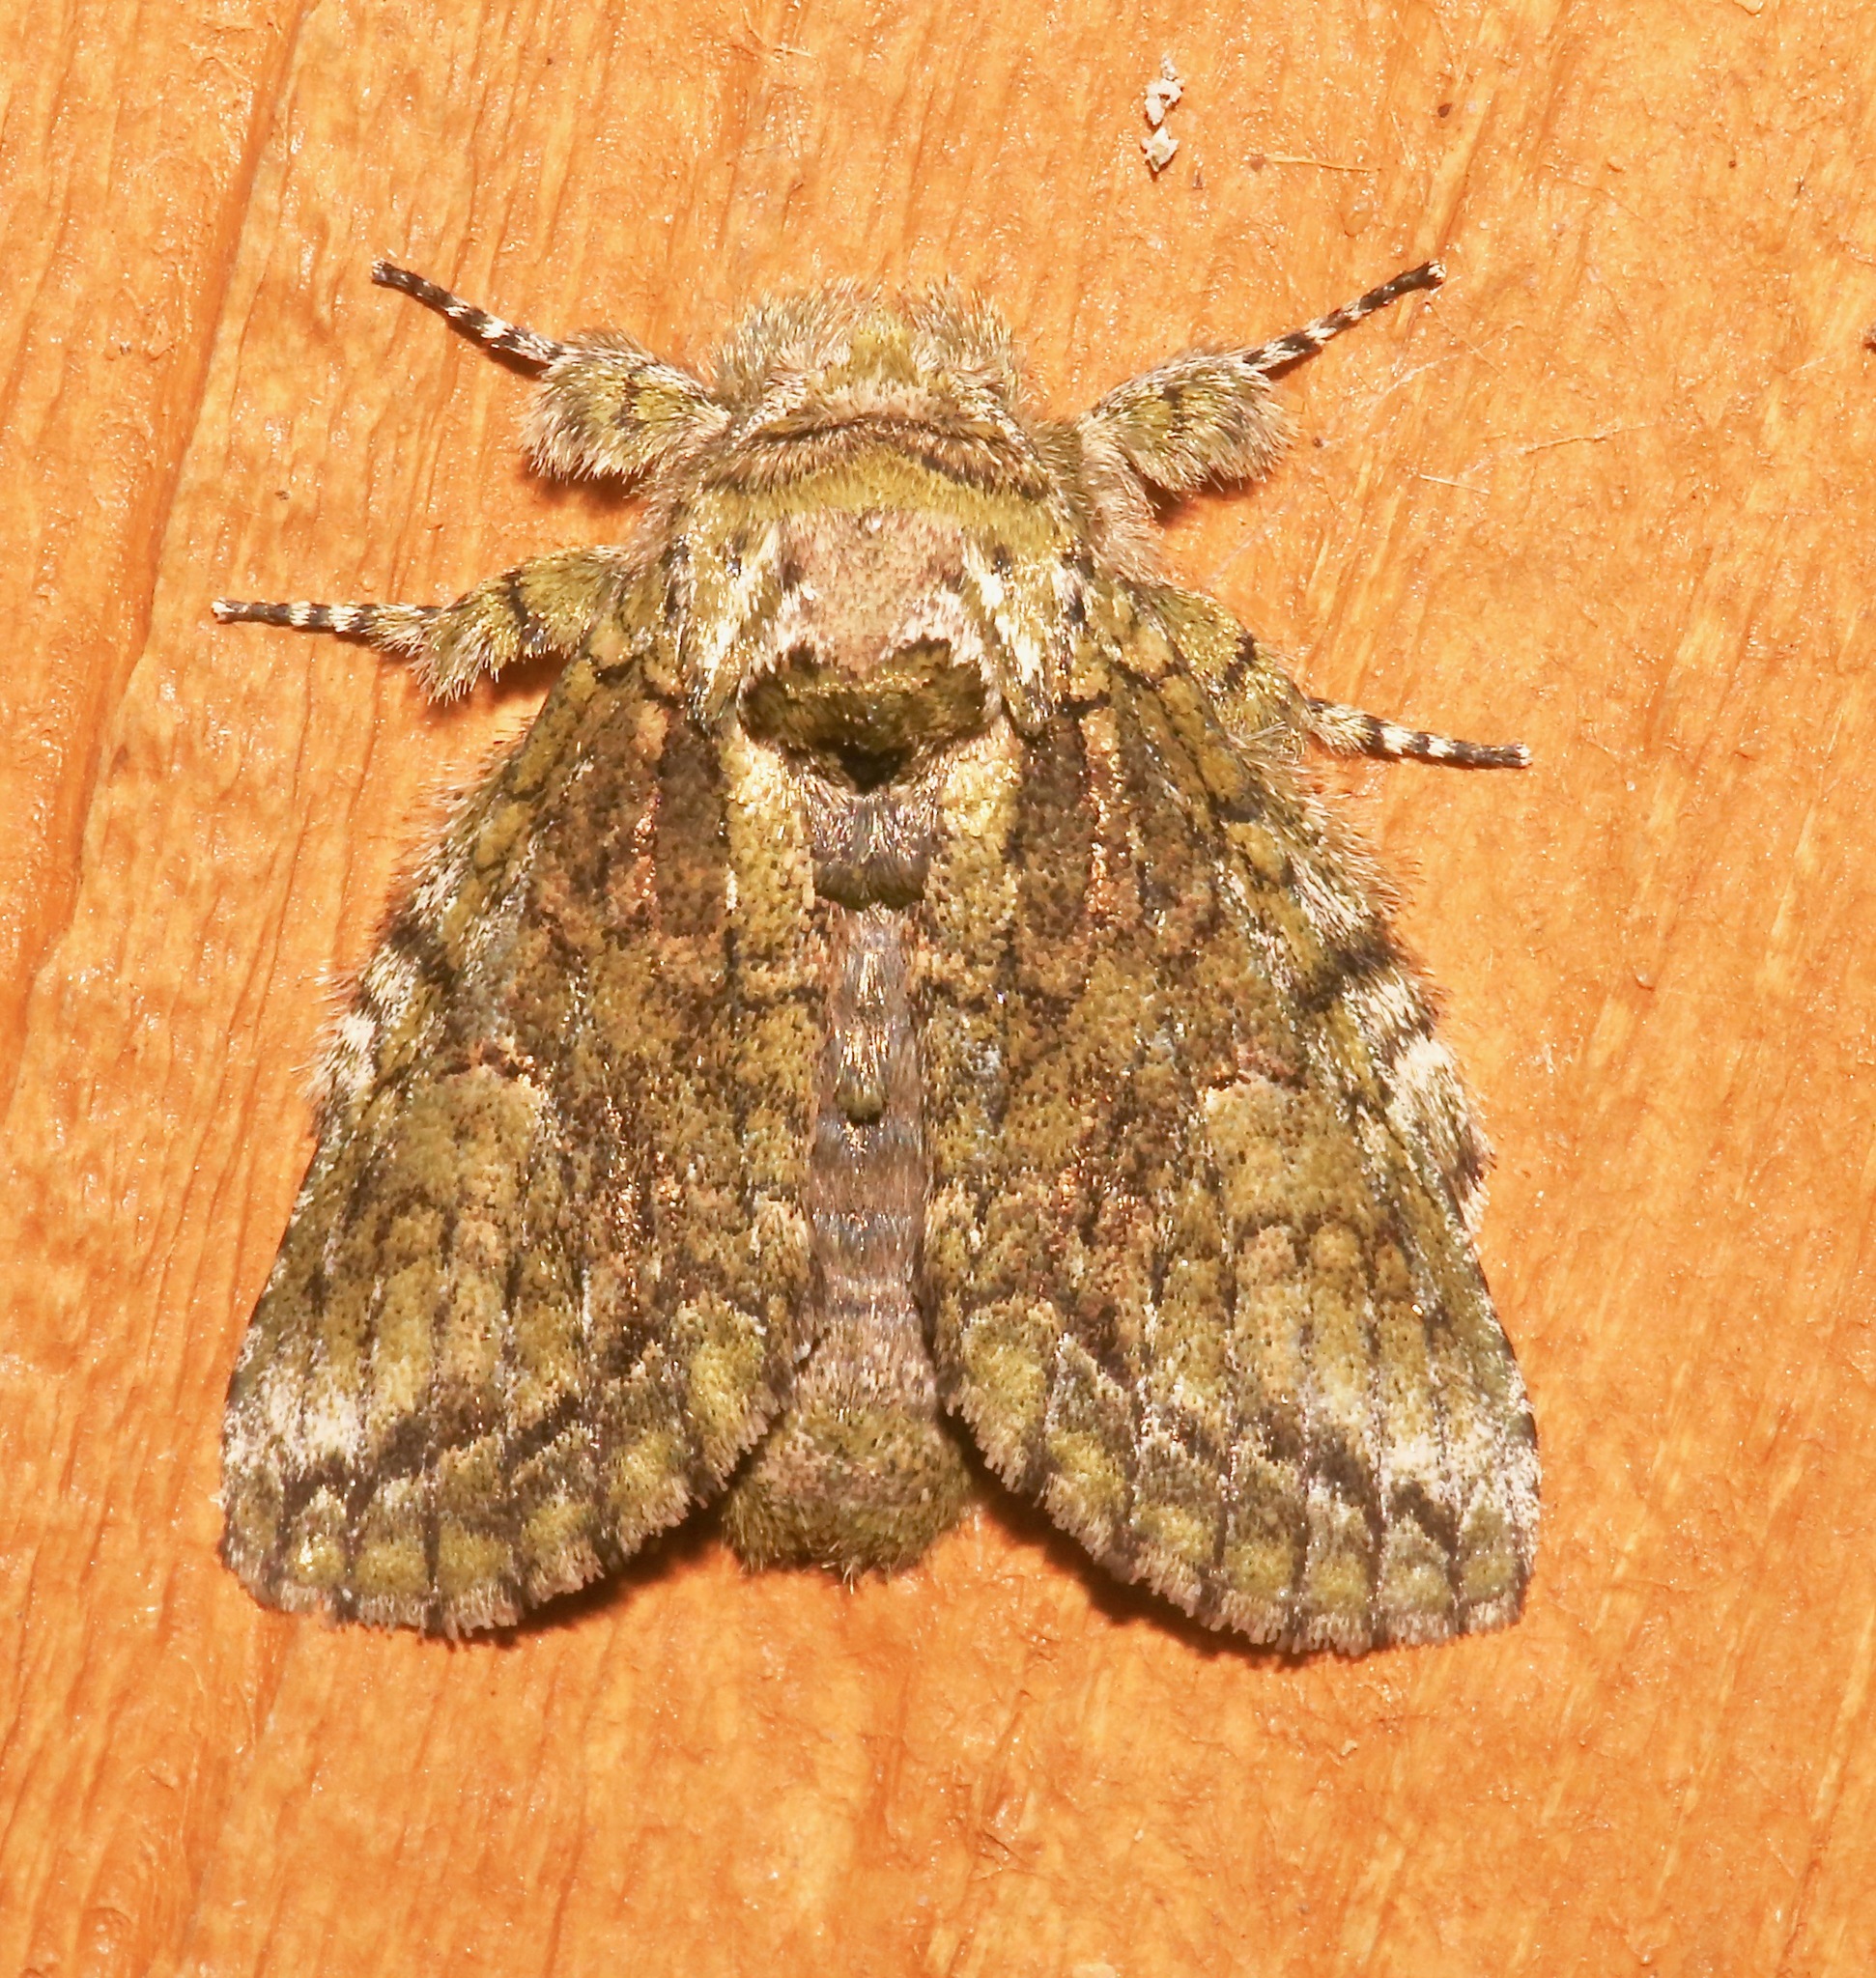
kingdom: Animalia
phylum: Arthropoda
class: Insecta
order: Lepidoptera
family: Notodontidae
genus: Heterocampa
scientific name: Heterocampa umbrata
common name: White-blotched heterocampa
